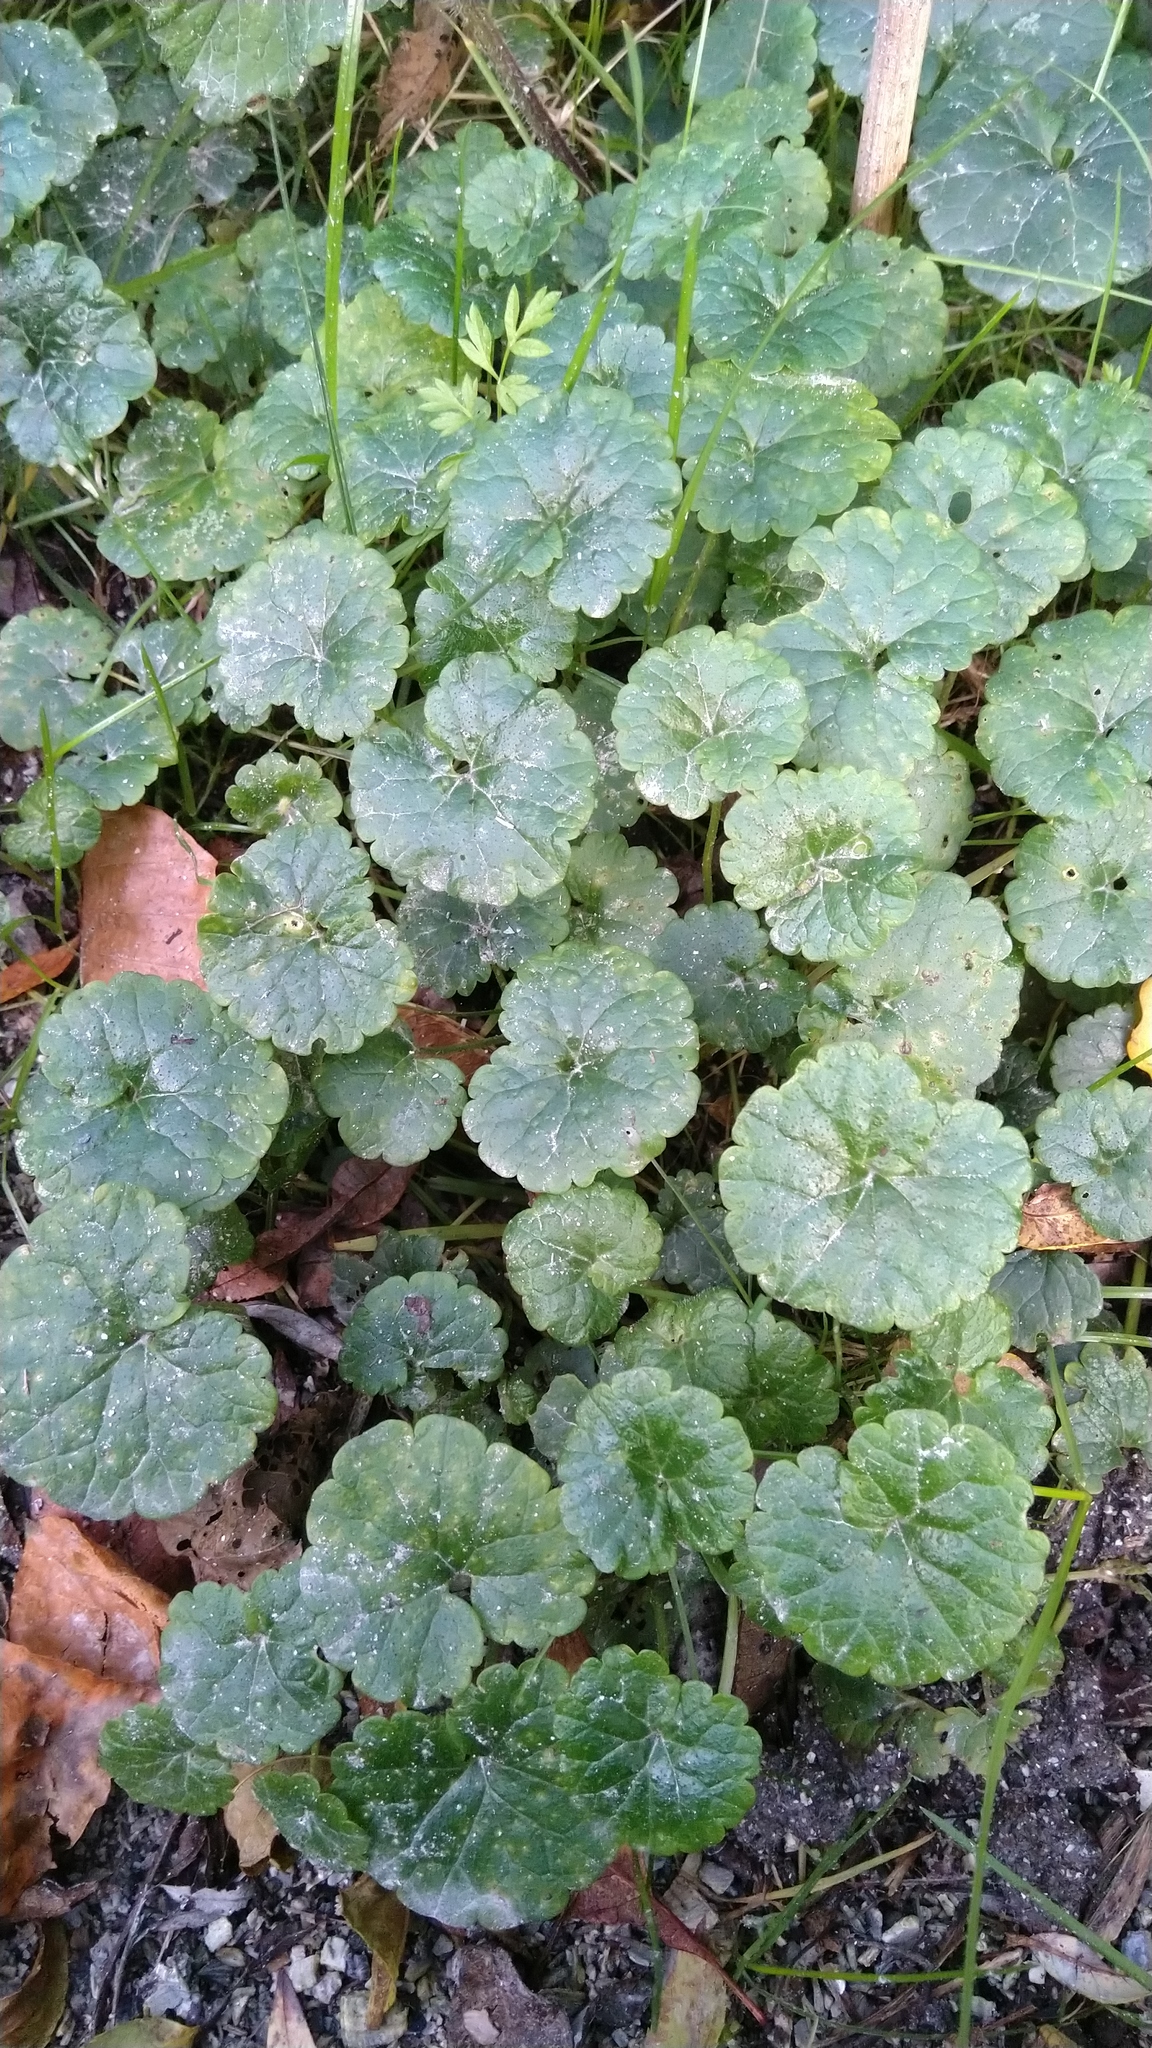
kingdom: Plantae
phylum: Tracheophyta
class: Magnoliopsida
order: Lamiales
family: Lamiaceae
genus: Glechoma
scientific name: Glechoma hederacea
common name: Ground ivy
